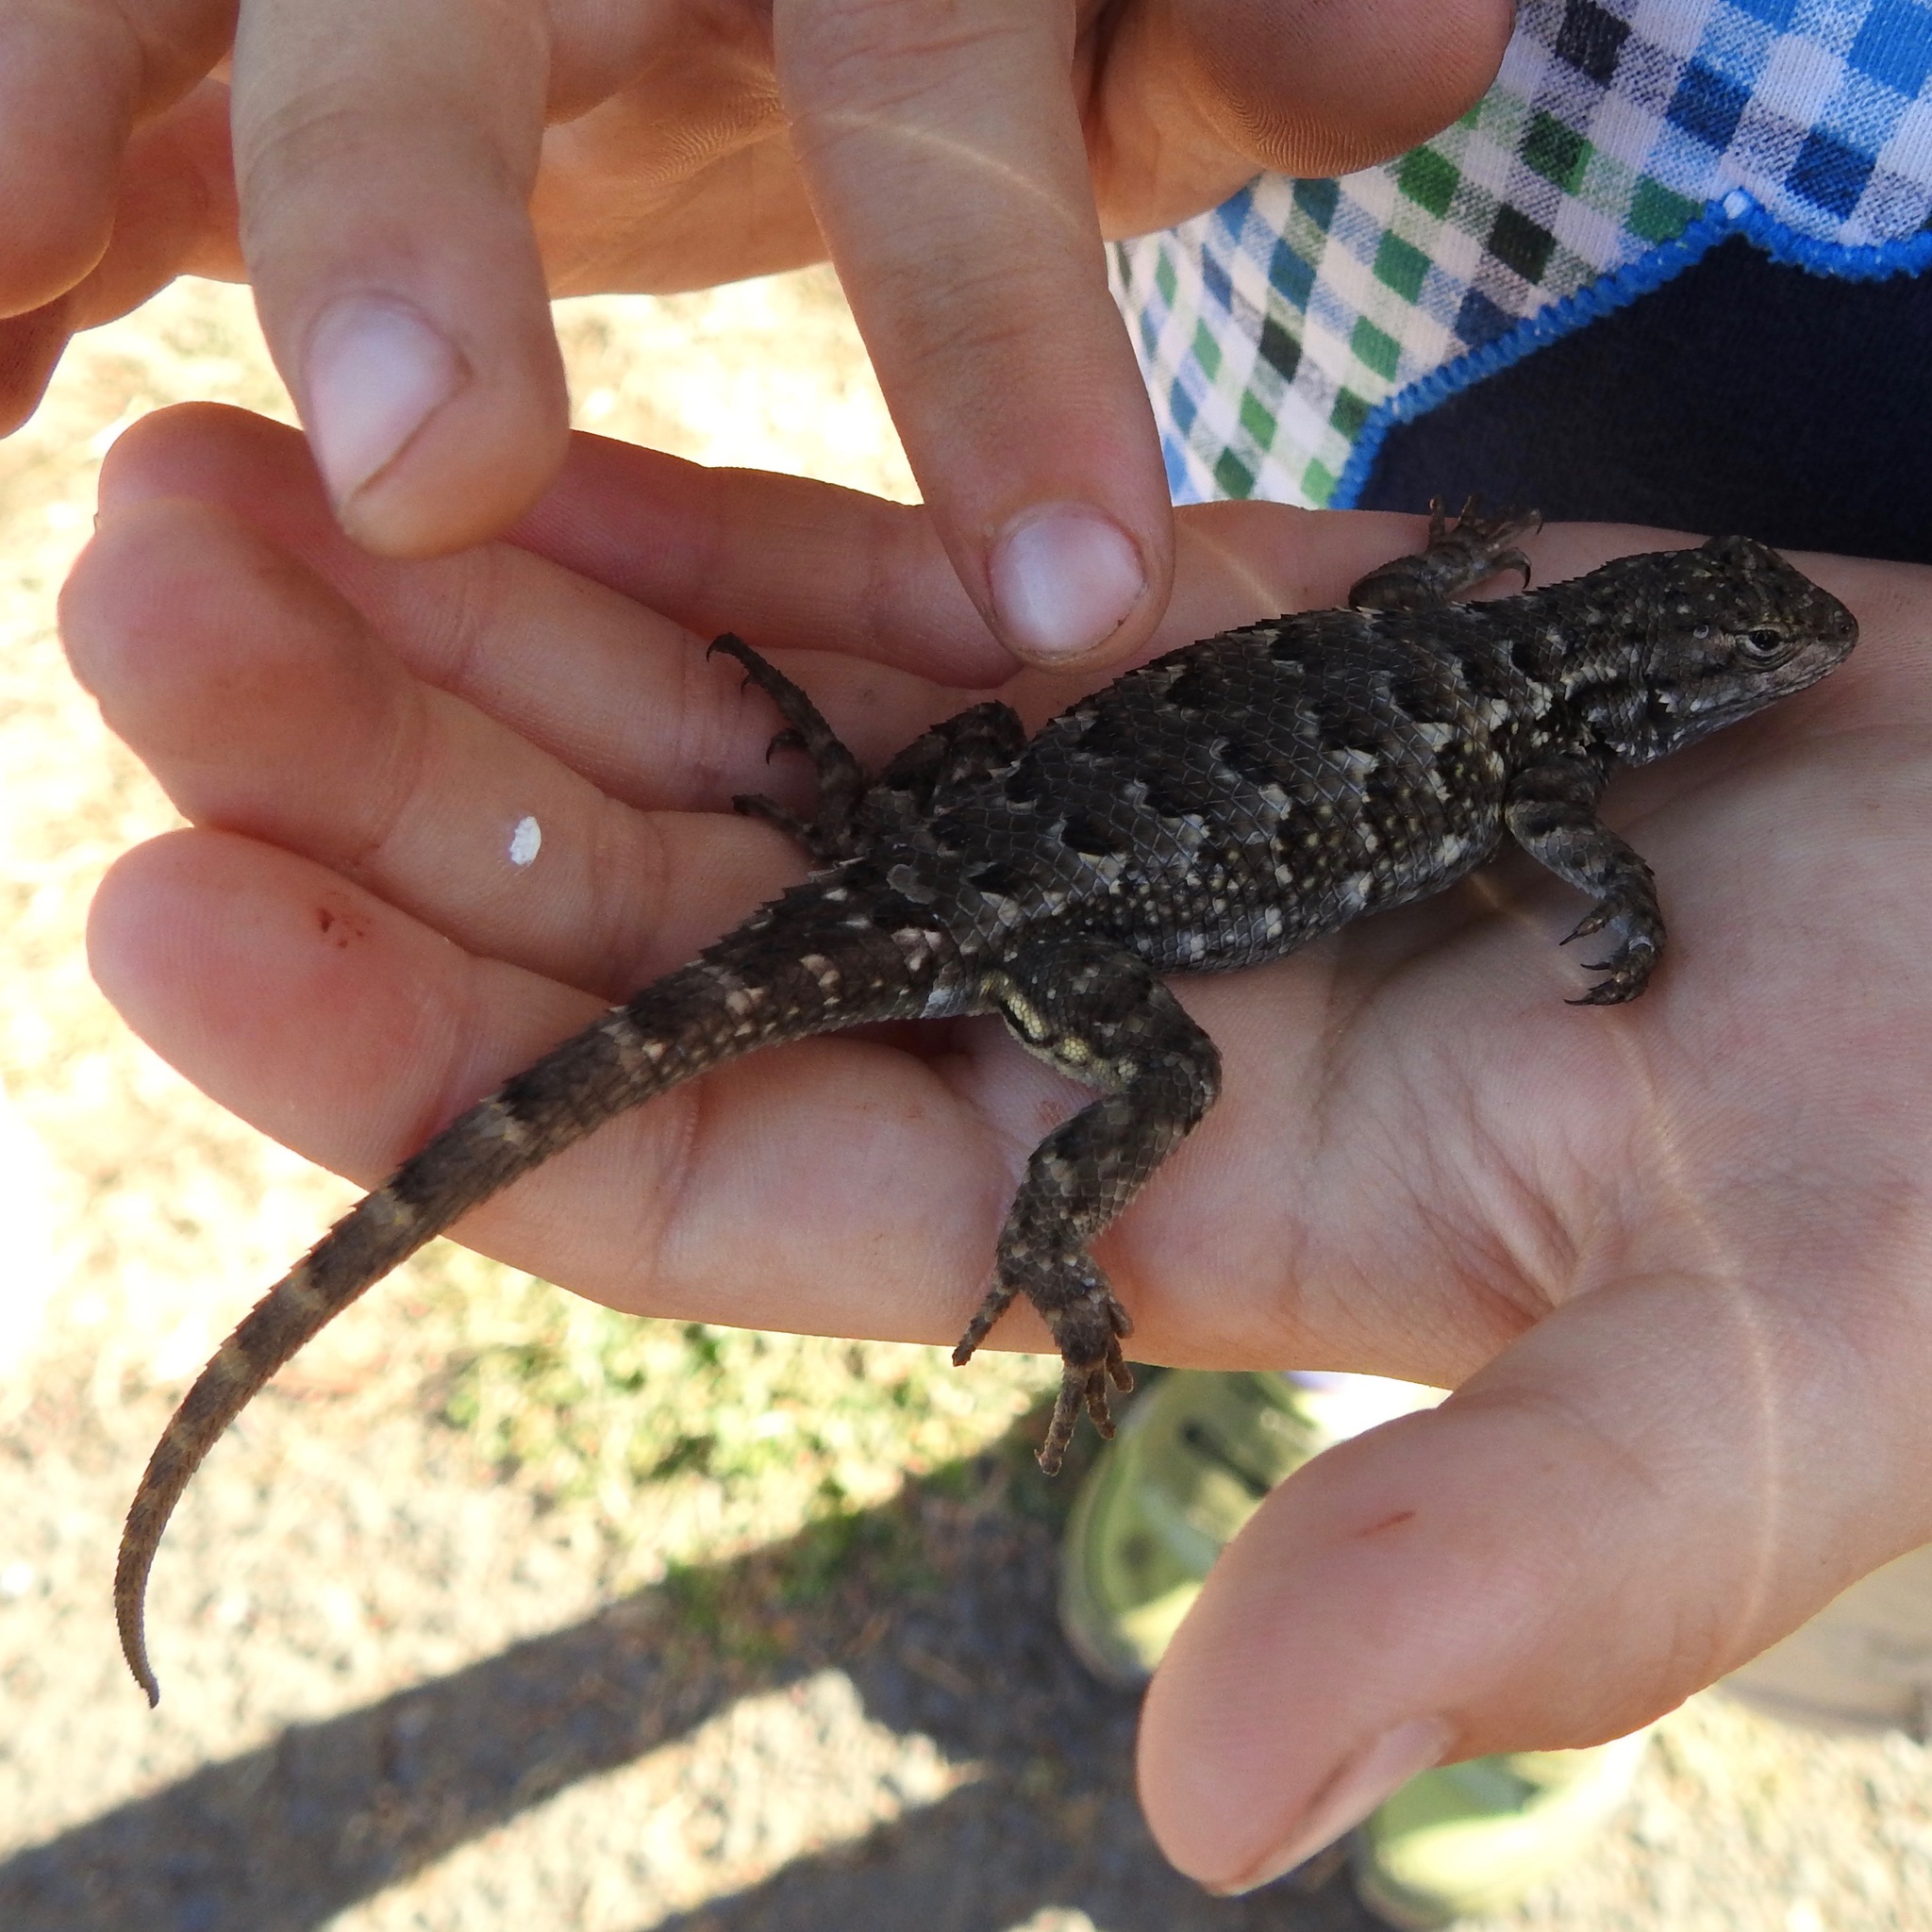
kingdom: Animalia
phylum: Chordata
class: Squamata
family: Phrynosomatidae
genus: Sceloporus
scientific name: Sceloporus occidentalis
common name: Western fence lizard
